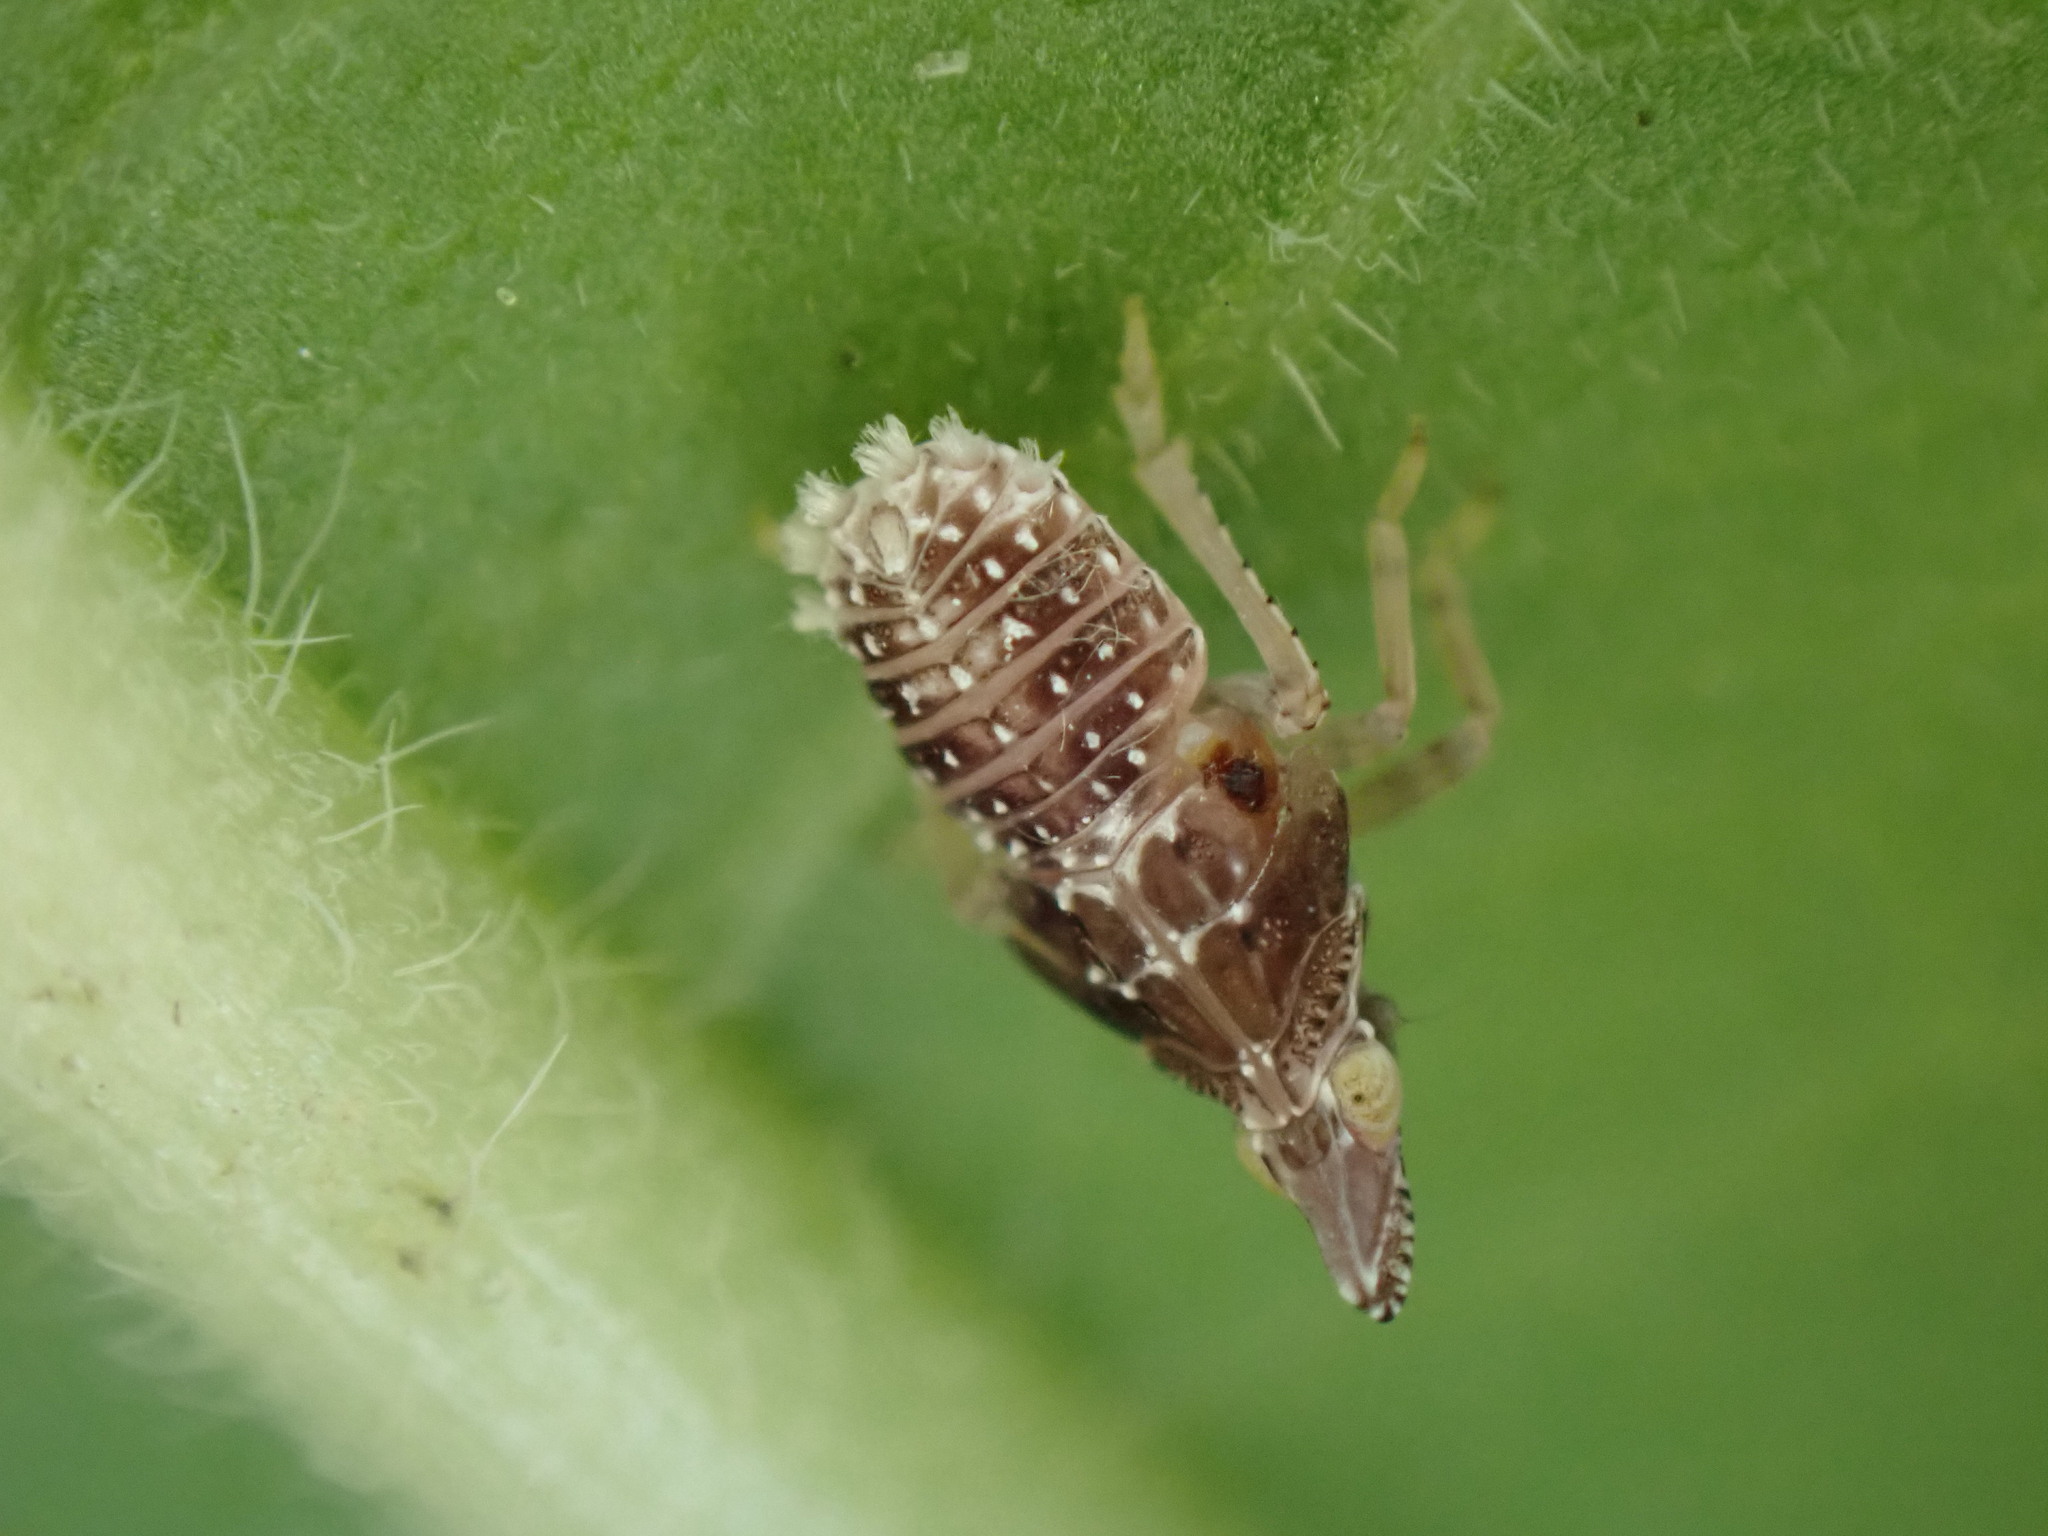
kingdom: Animalia
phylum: Arthropoda
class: Insecta
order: Hemiptera
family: Dictyopharidae
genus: Dictyophara
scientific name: Dictyophara europaea
